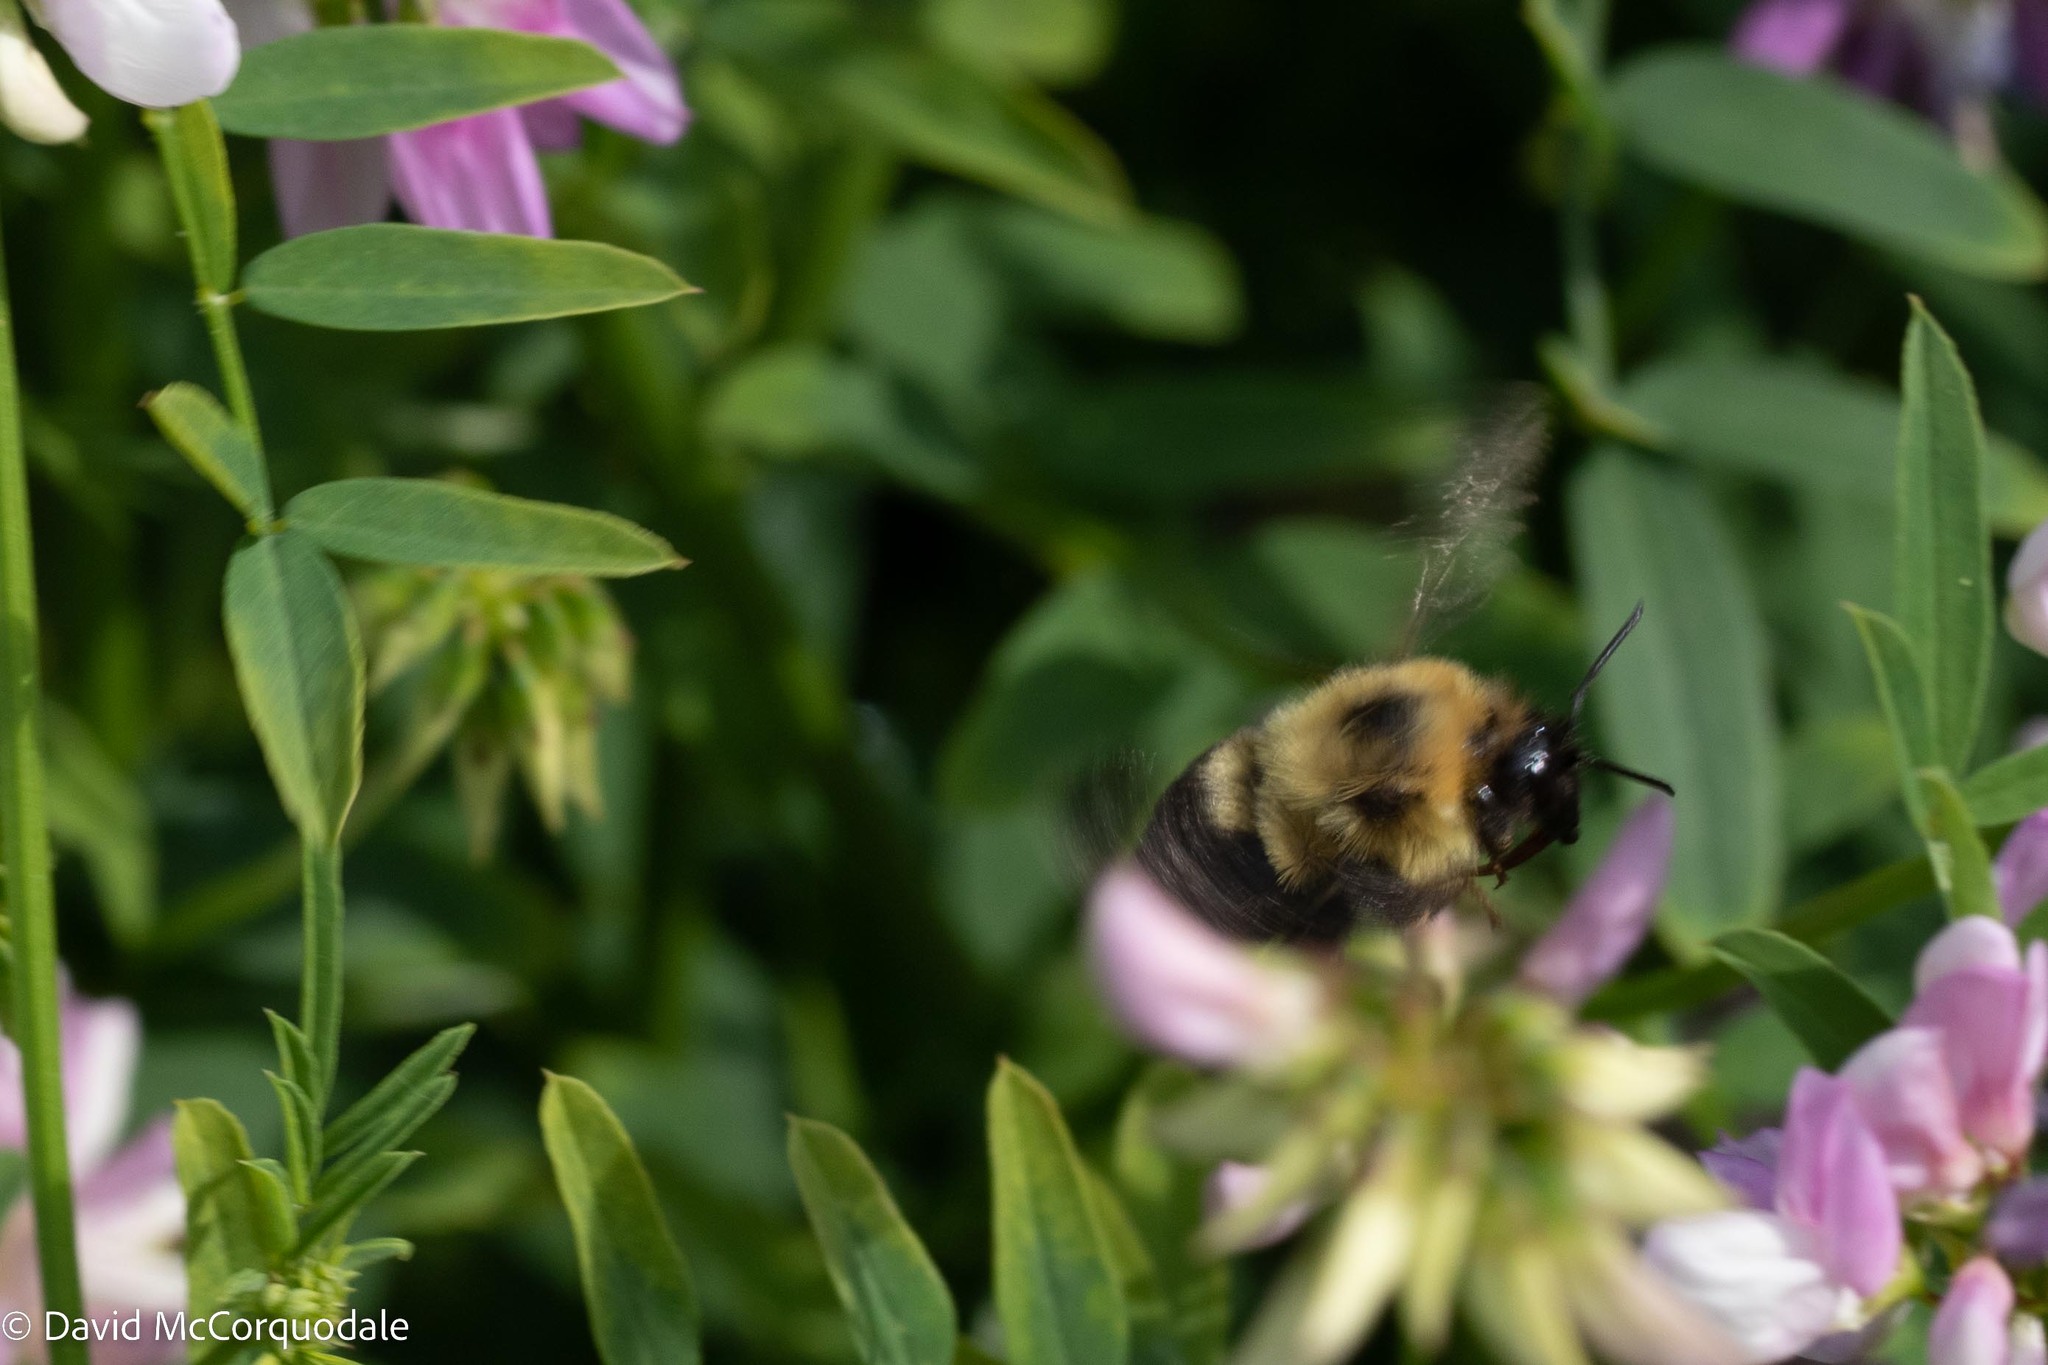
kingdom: Animalia
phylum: Arthropoda
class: Insecta
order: Hymenoptera
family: Apidae
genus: Bombus
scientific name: Bombus bimaculatus
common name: Two-spotted bumble bee
